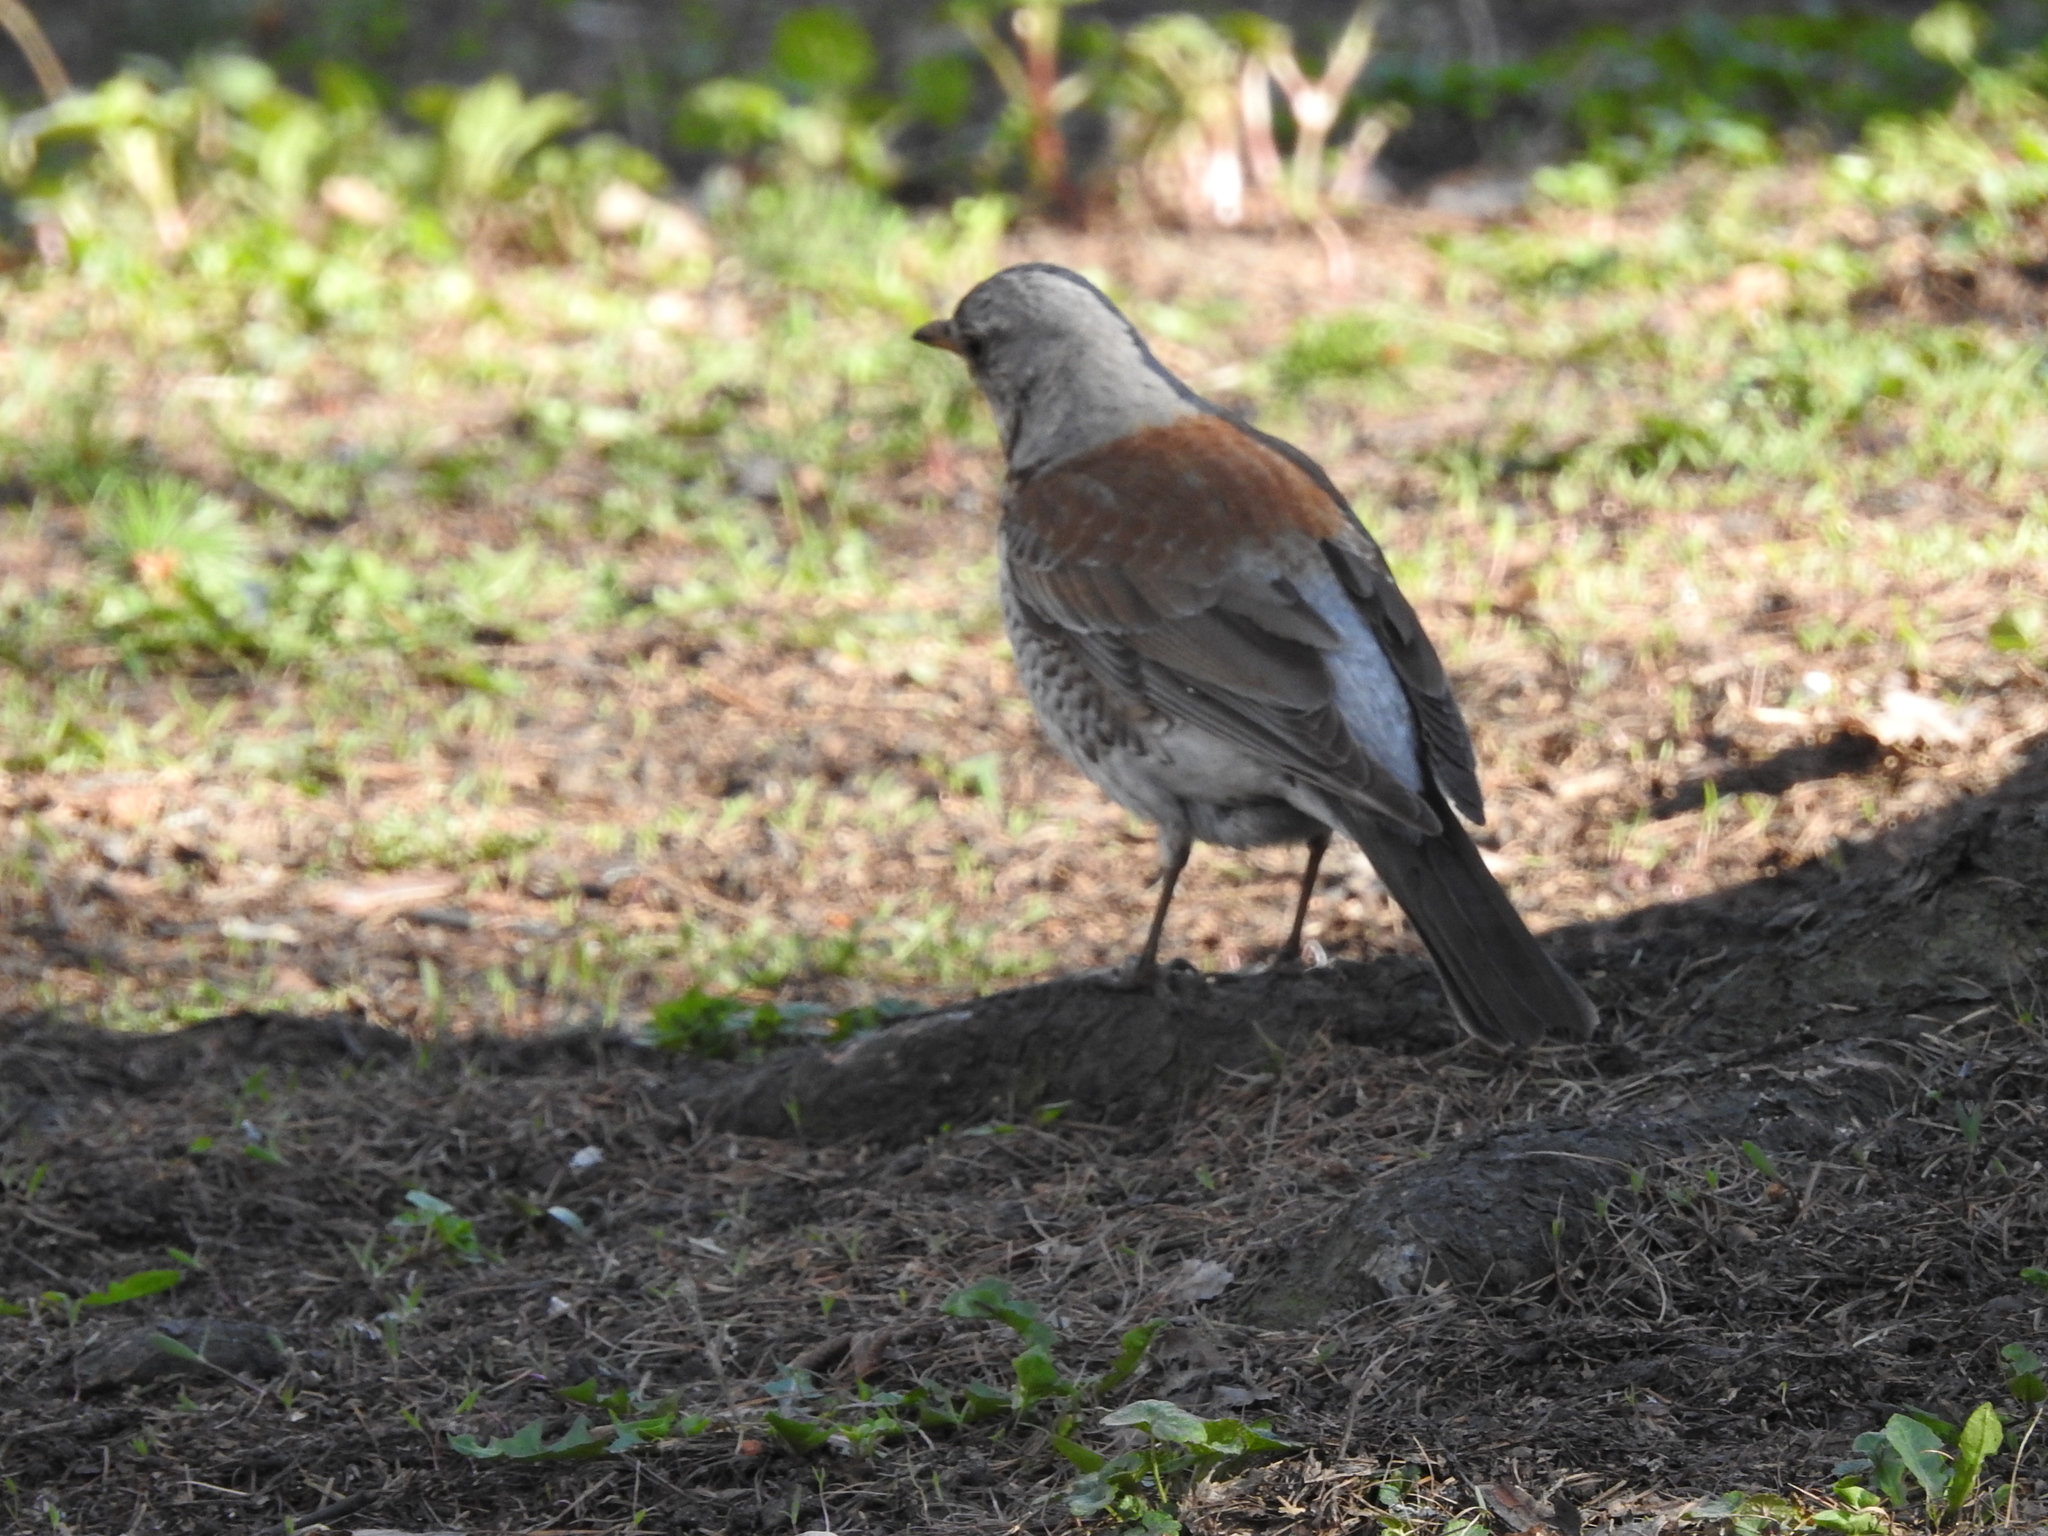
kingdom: Animalia
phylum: Chordata
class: Aves
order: Passeriformes
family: Turdidae
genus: Turdus
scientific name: Turdus pilaris
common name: Fieldfare
